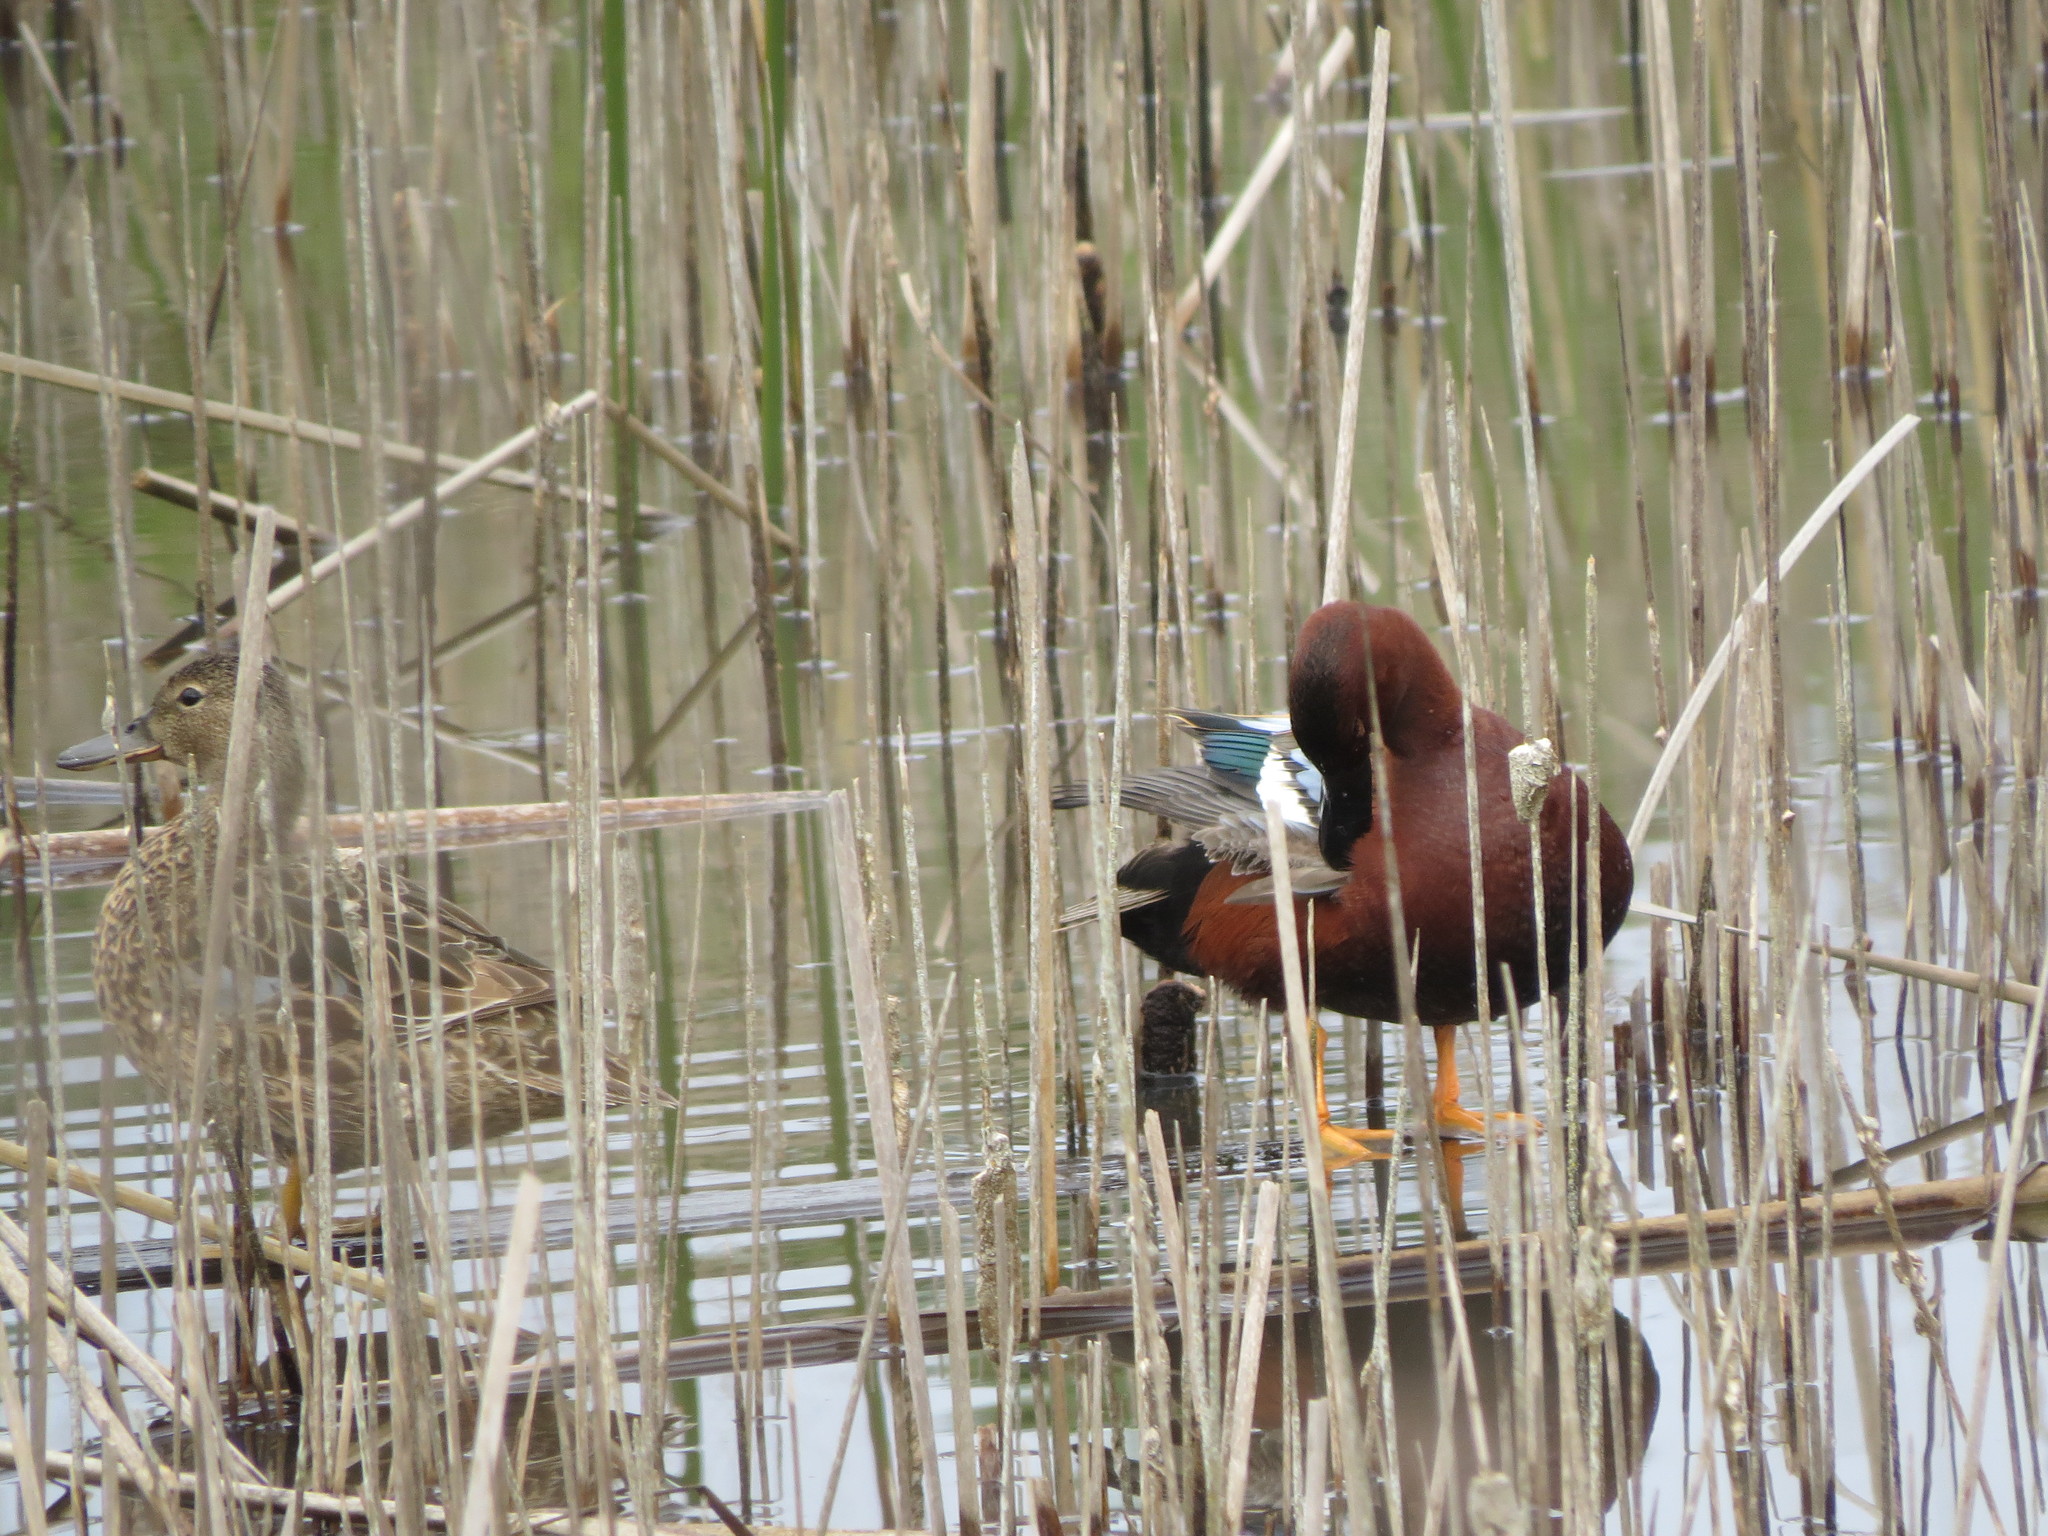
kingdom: Animalia
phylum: Chordata
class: Aves
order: Anseriformes
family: Anatidae
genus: Spatula
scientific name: Spatula cyanoptera
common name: Cinnamon teal
